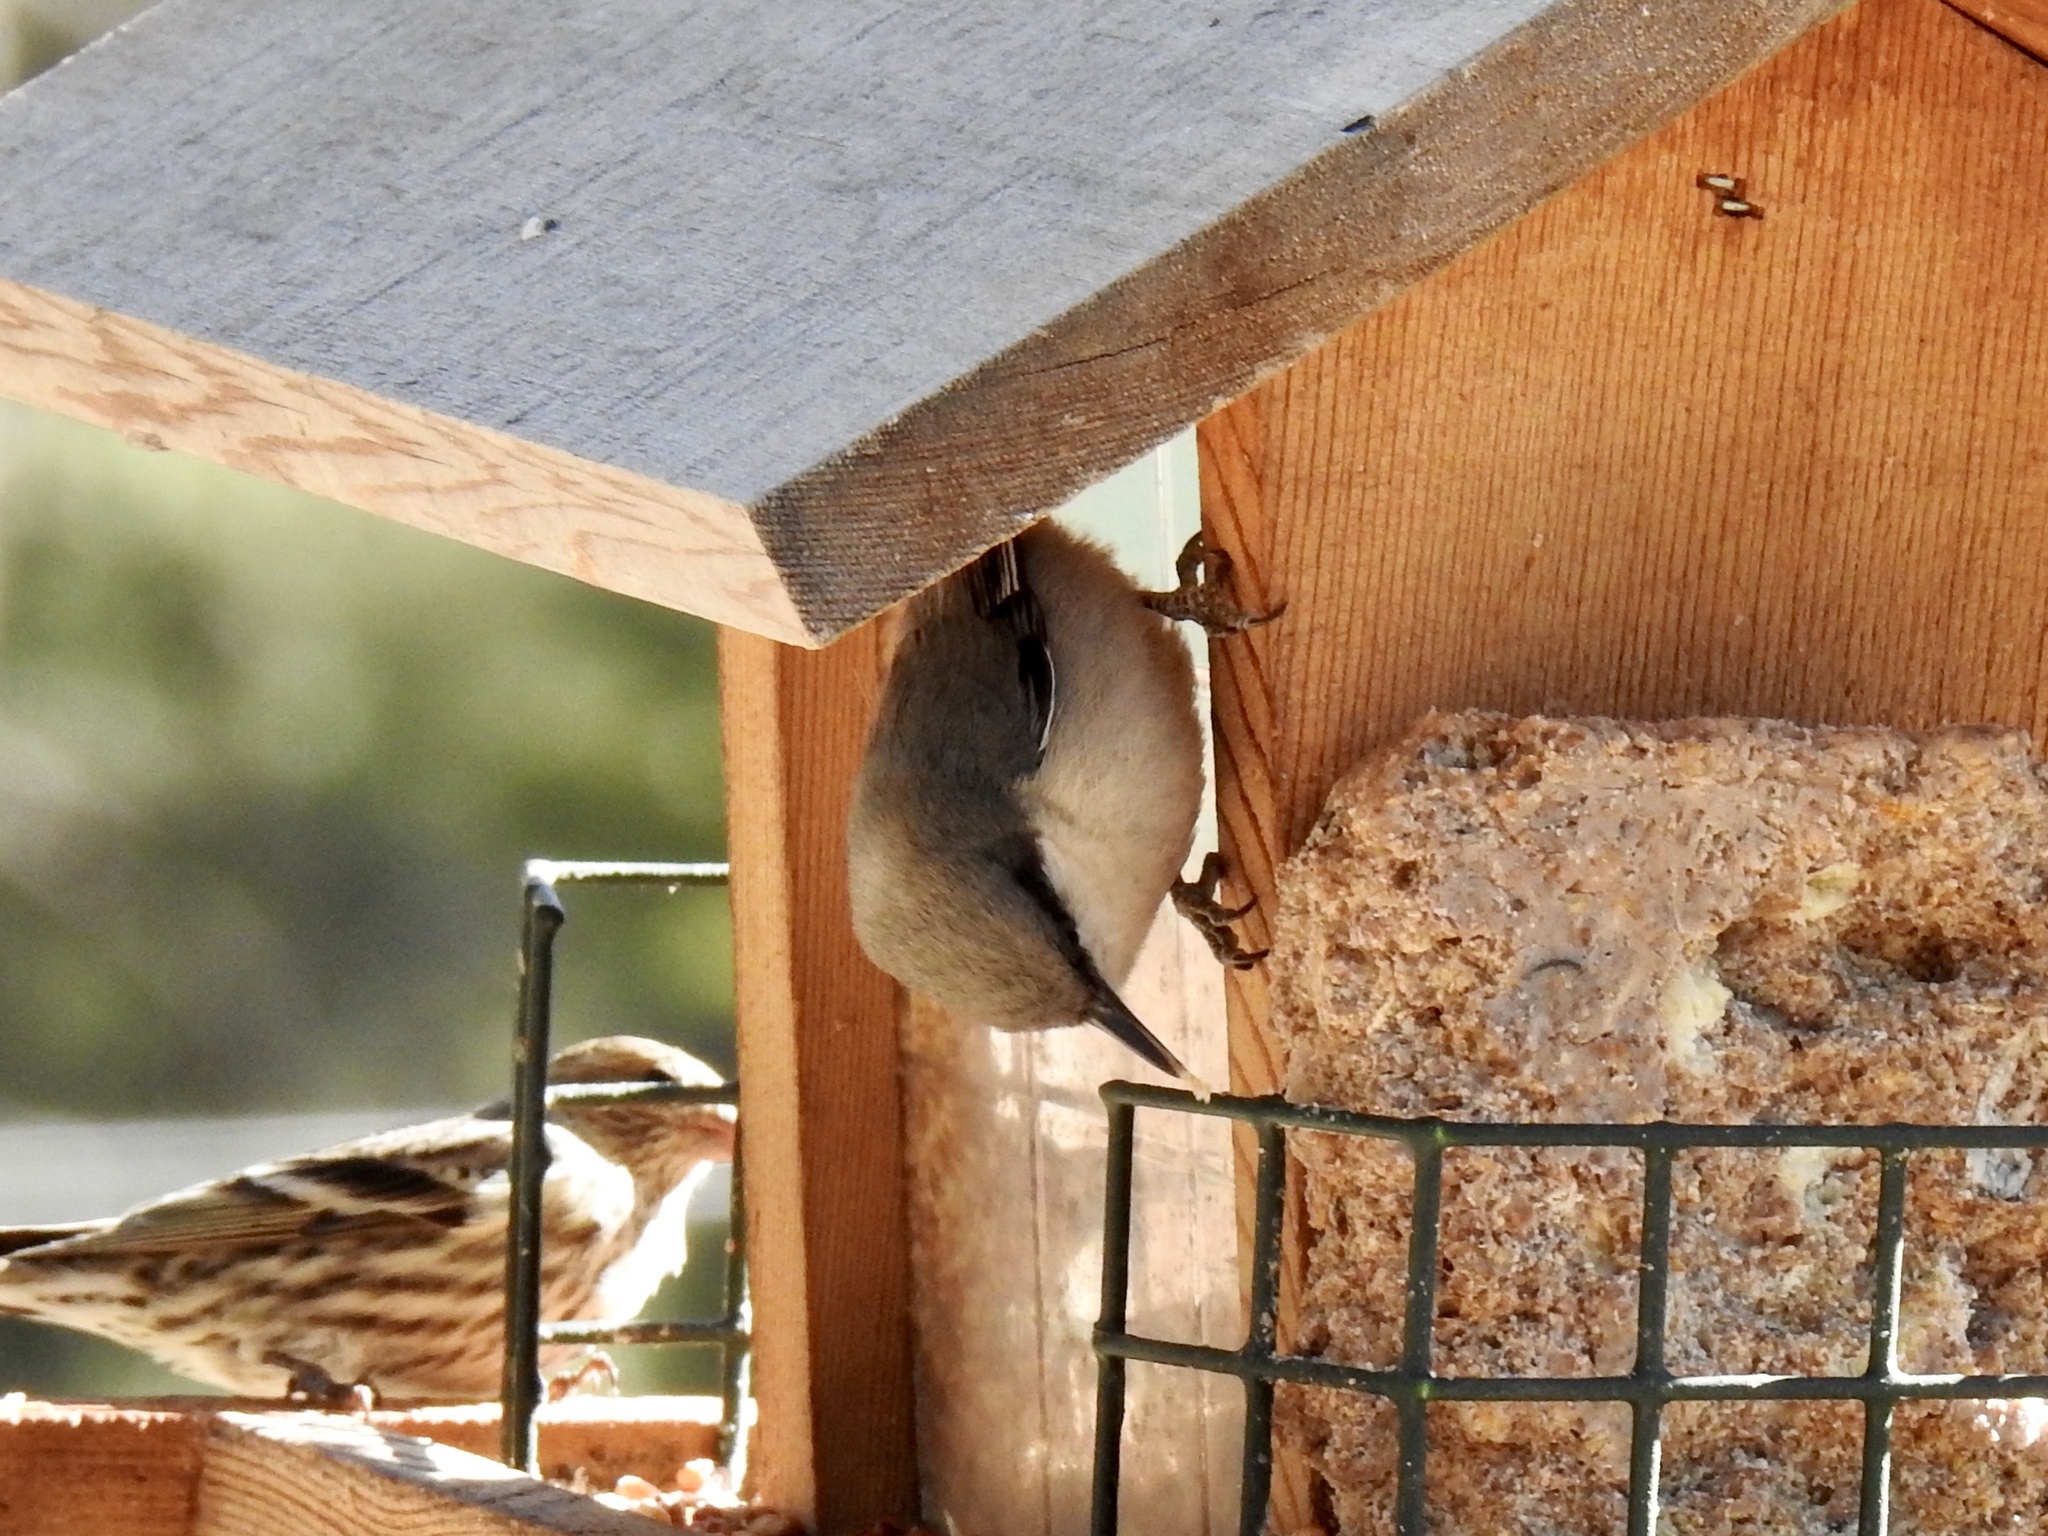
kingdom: Animalia
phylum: Chordata
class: Aves
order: Passeriformes
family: Sittidae
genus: Sitta
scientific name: Sitta pygmaea
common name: Pygmy nuthatch
